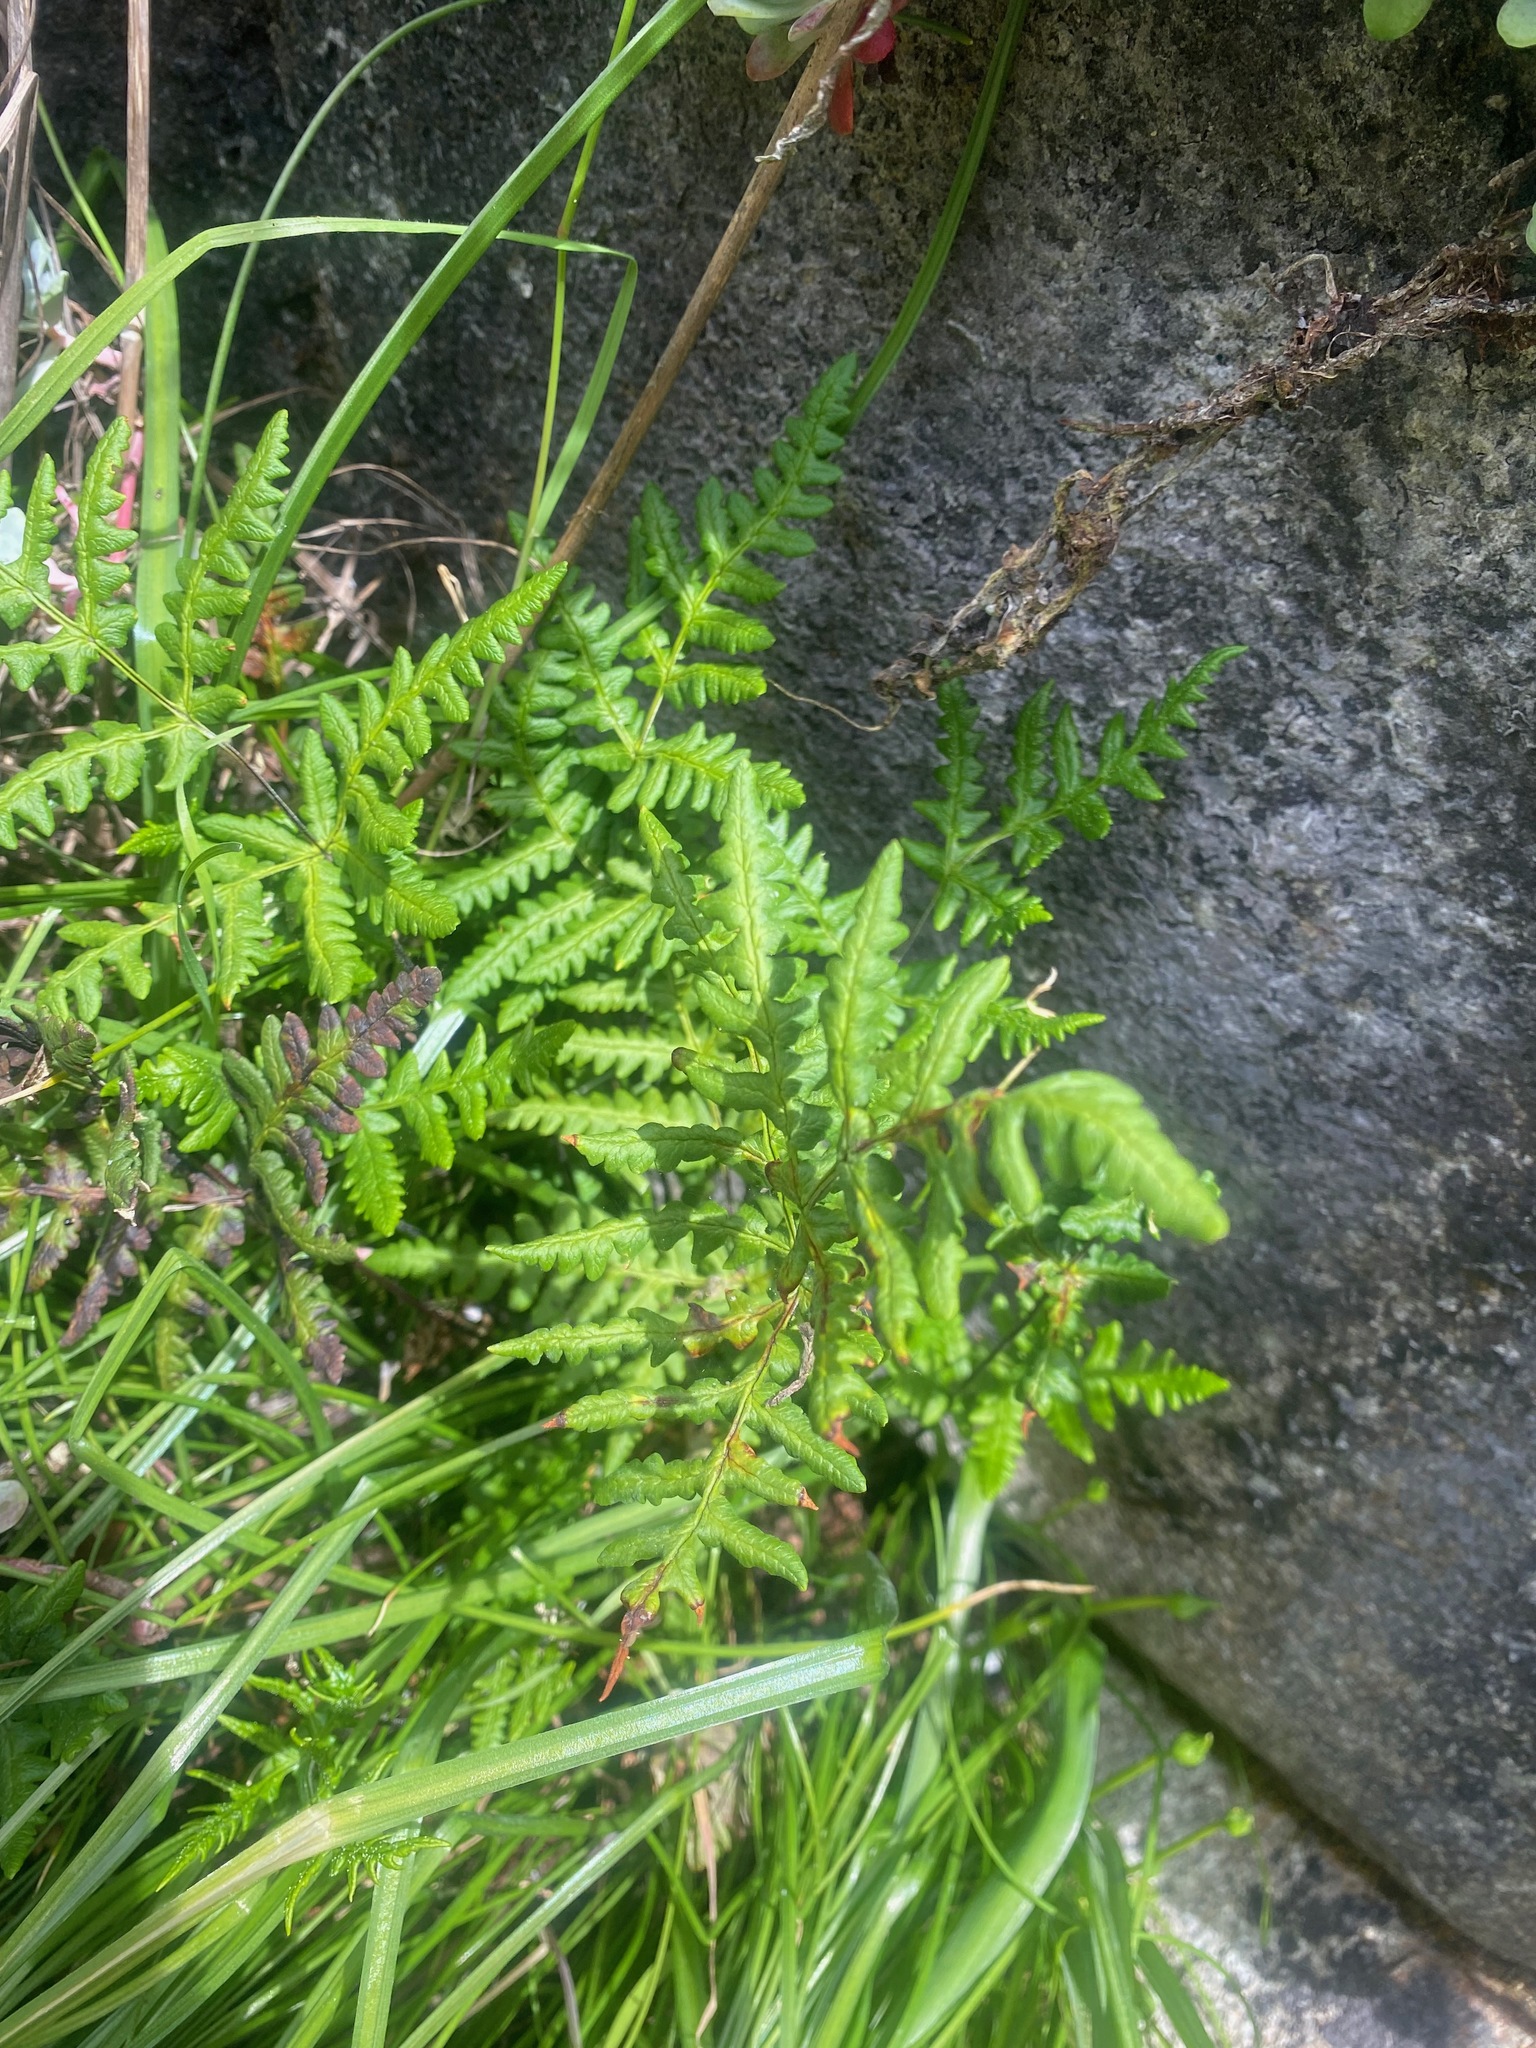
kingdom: Plantae
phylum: Tracheophyta
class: Polypodiopsida
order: Polypodiales
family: Pteridaceae
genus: Pentagramma
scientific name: Pentagramma triangularis
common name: Gold fern
